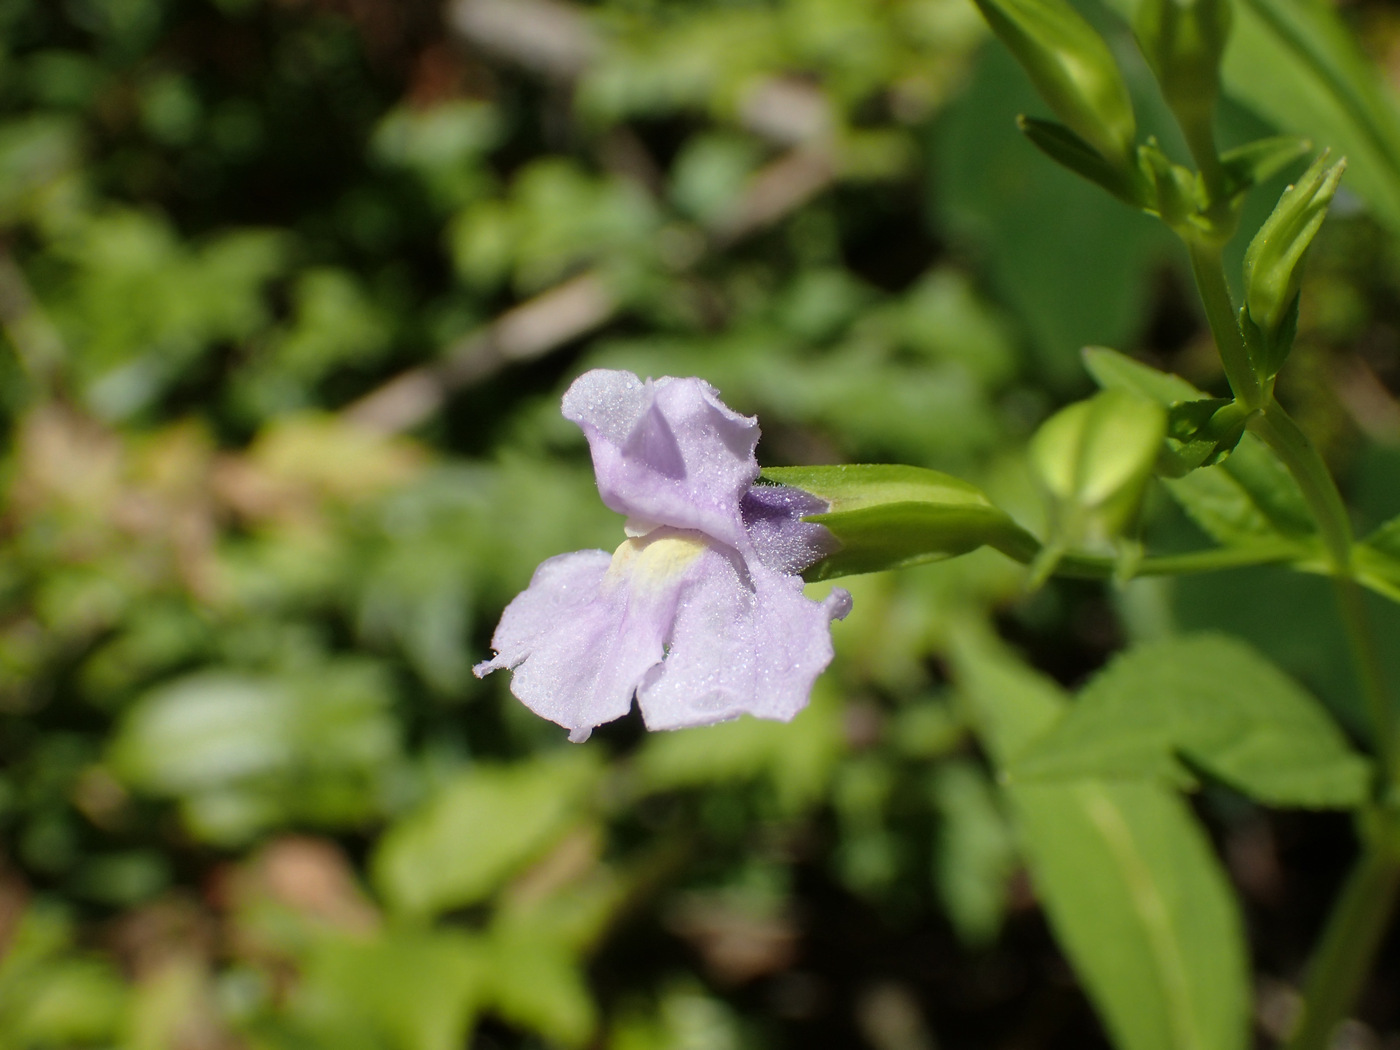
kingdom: Plantae
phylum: Tracheophyta
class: Magnoliopsida
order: Lamiales
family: Phrymaceae
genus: Mimulus
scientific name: Mimulus ringens
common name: Allegheny monkeyflower
